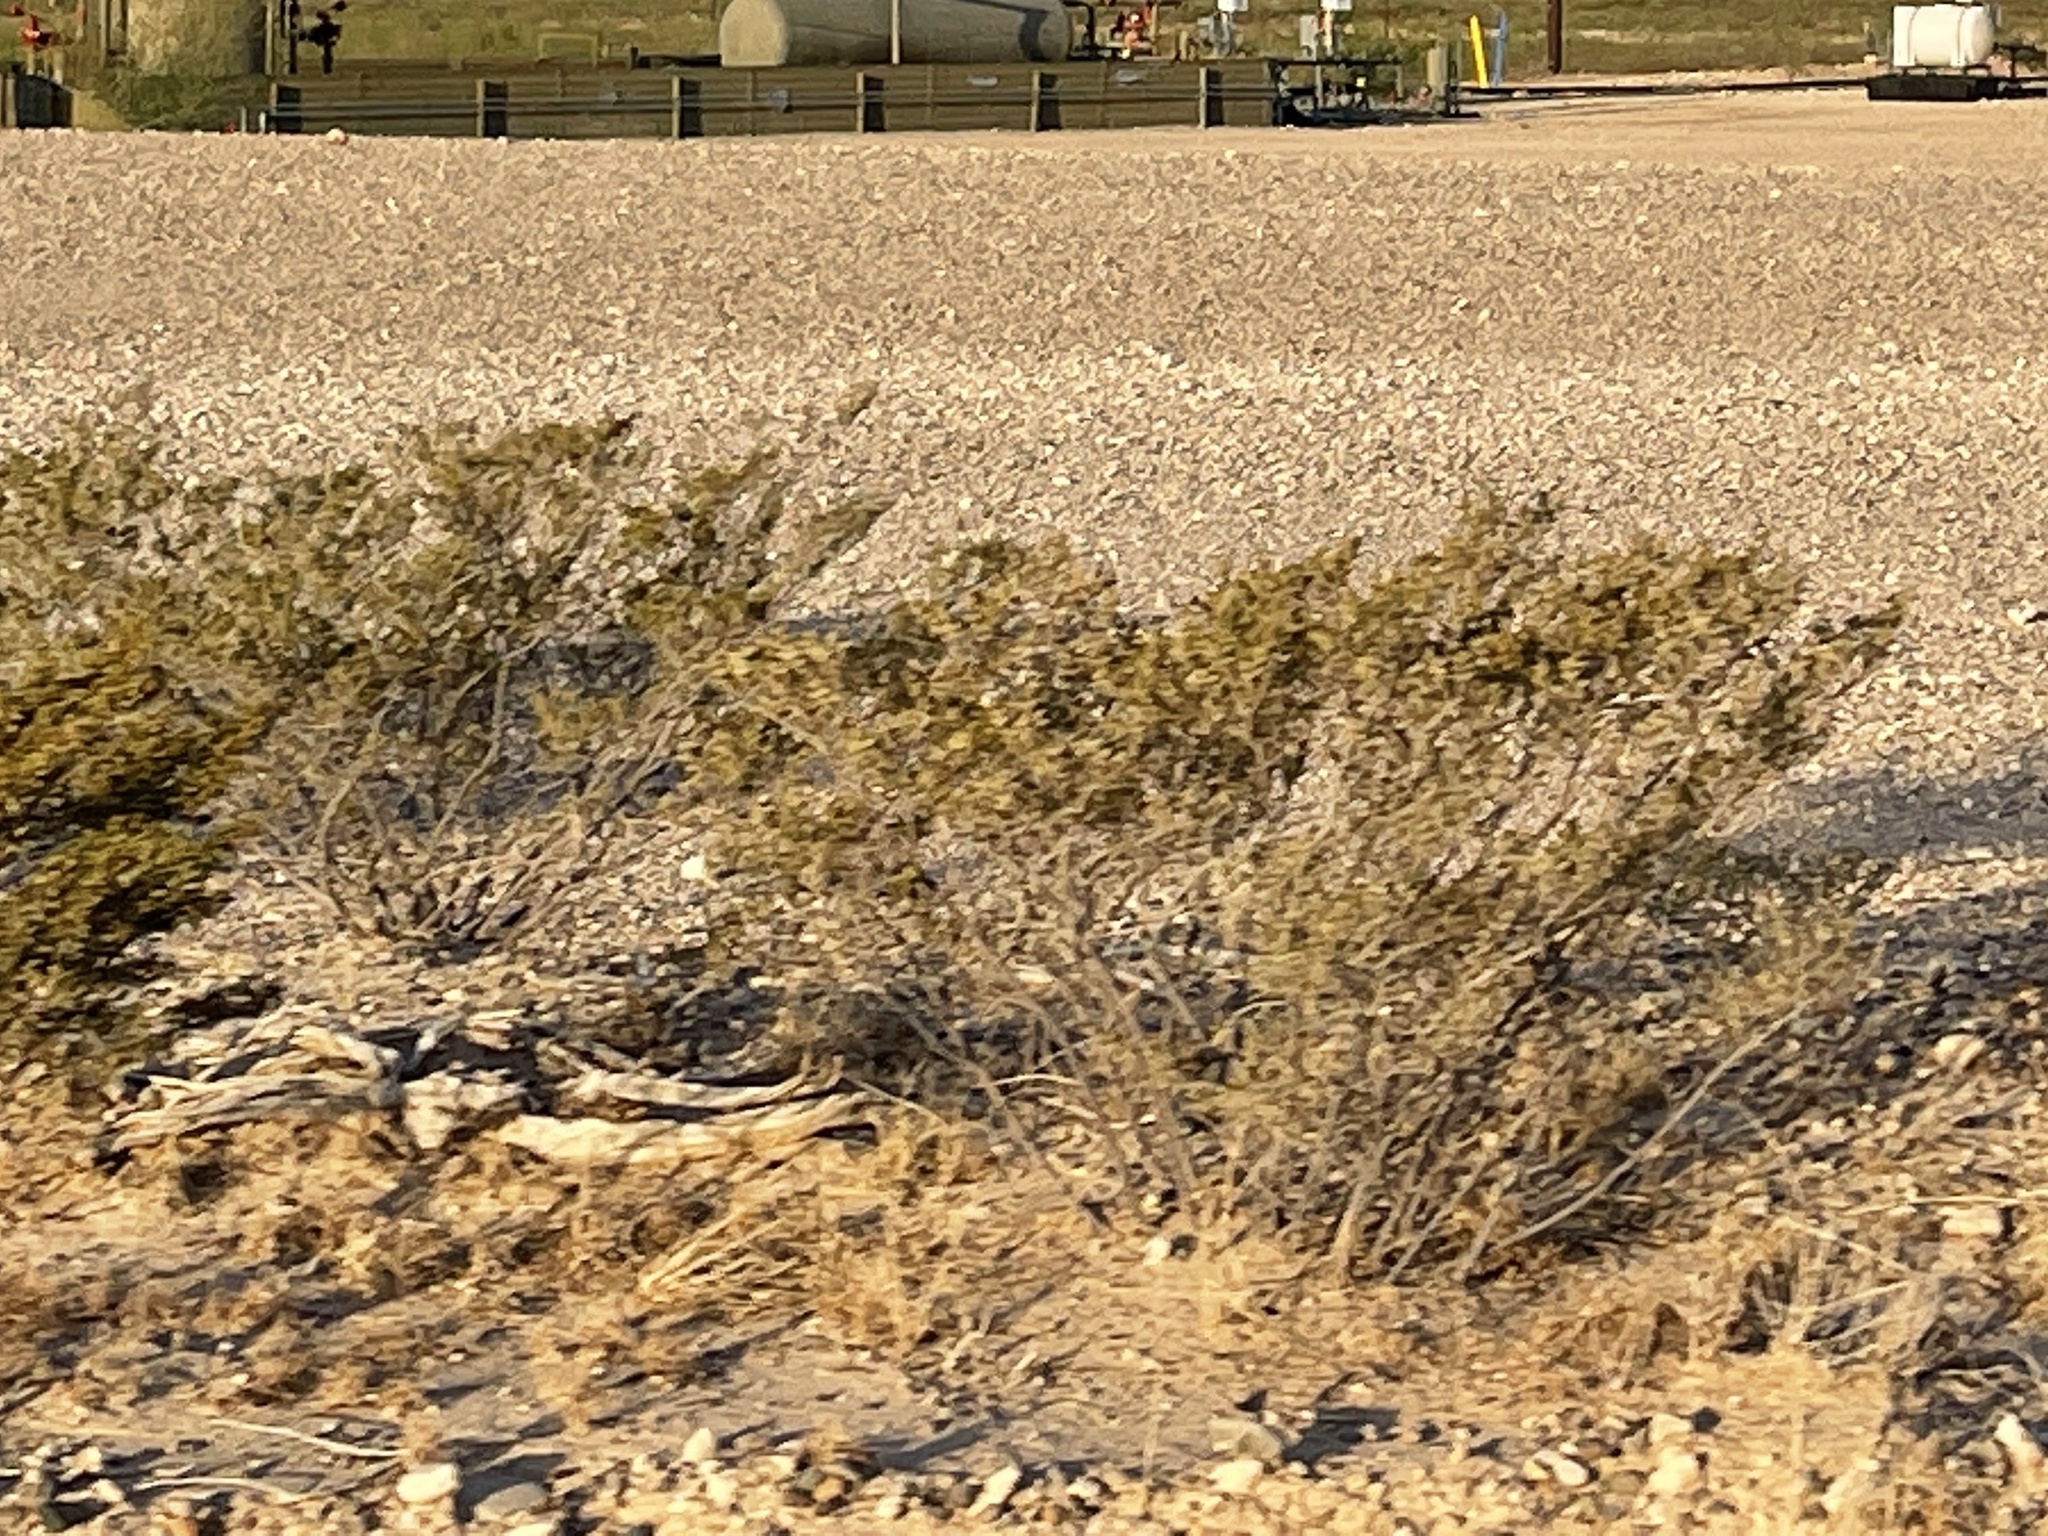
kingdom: Plantae
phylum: Tracheophyta
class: Magnoliopsida
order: Zygophyllales
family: Zygophyllaceae
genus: Larrea
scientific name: Larrea tridentata
